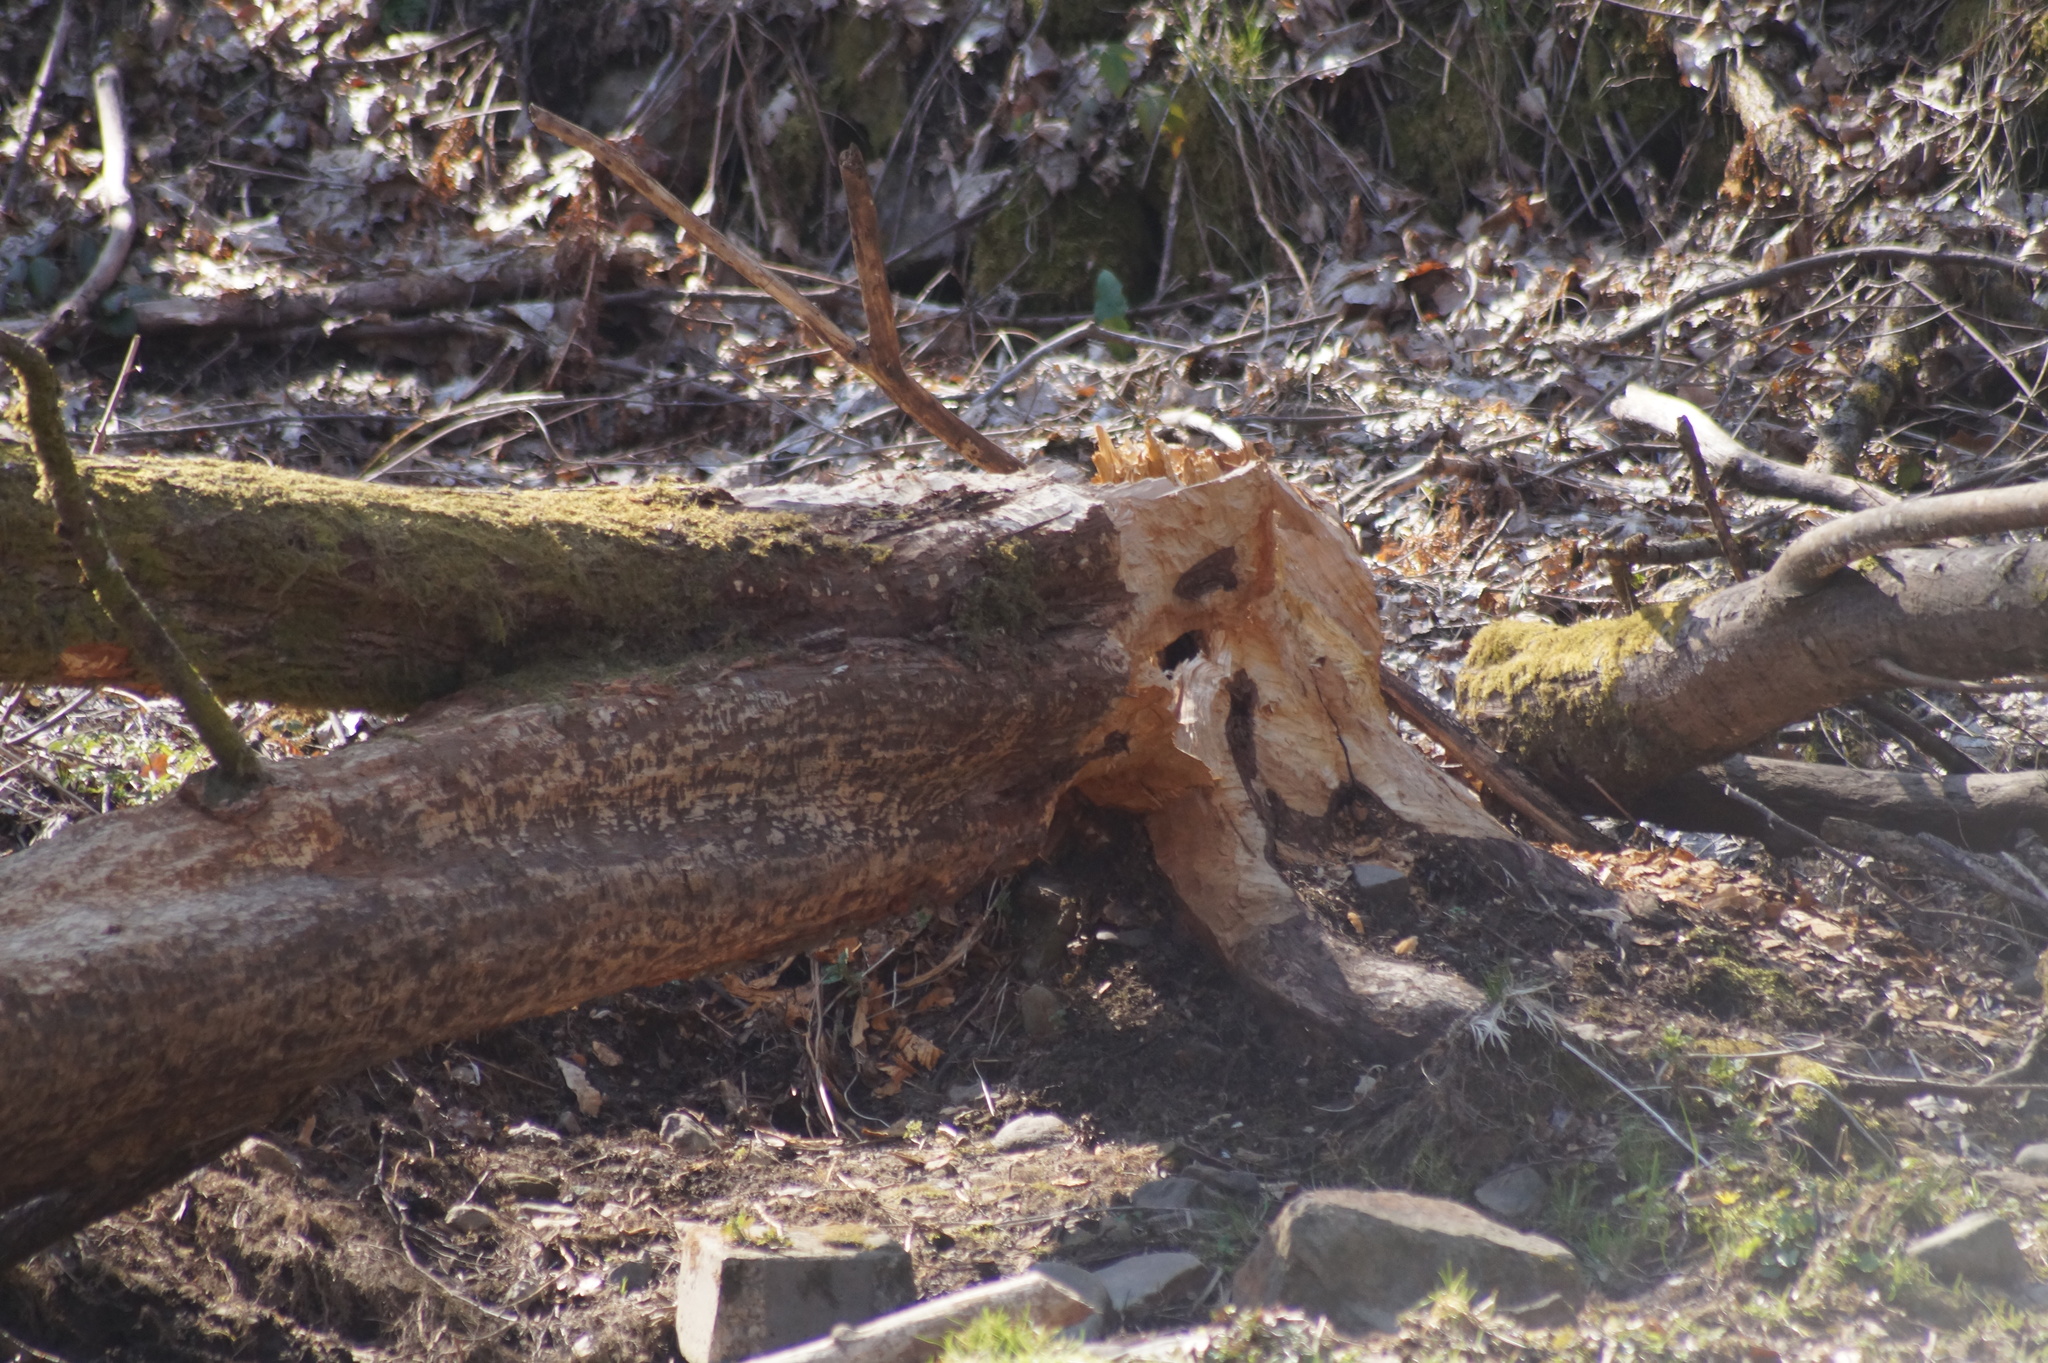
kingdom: Animalia
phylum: Chordata
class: Mammalia
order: Rodentia
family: Castoridae
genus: Castor
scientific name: Castor fiber
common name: Eurasian beaver
